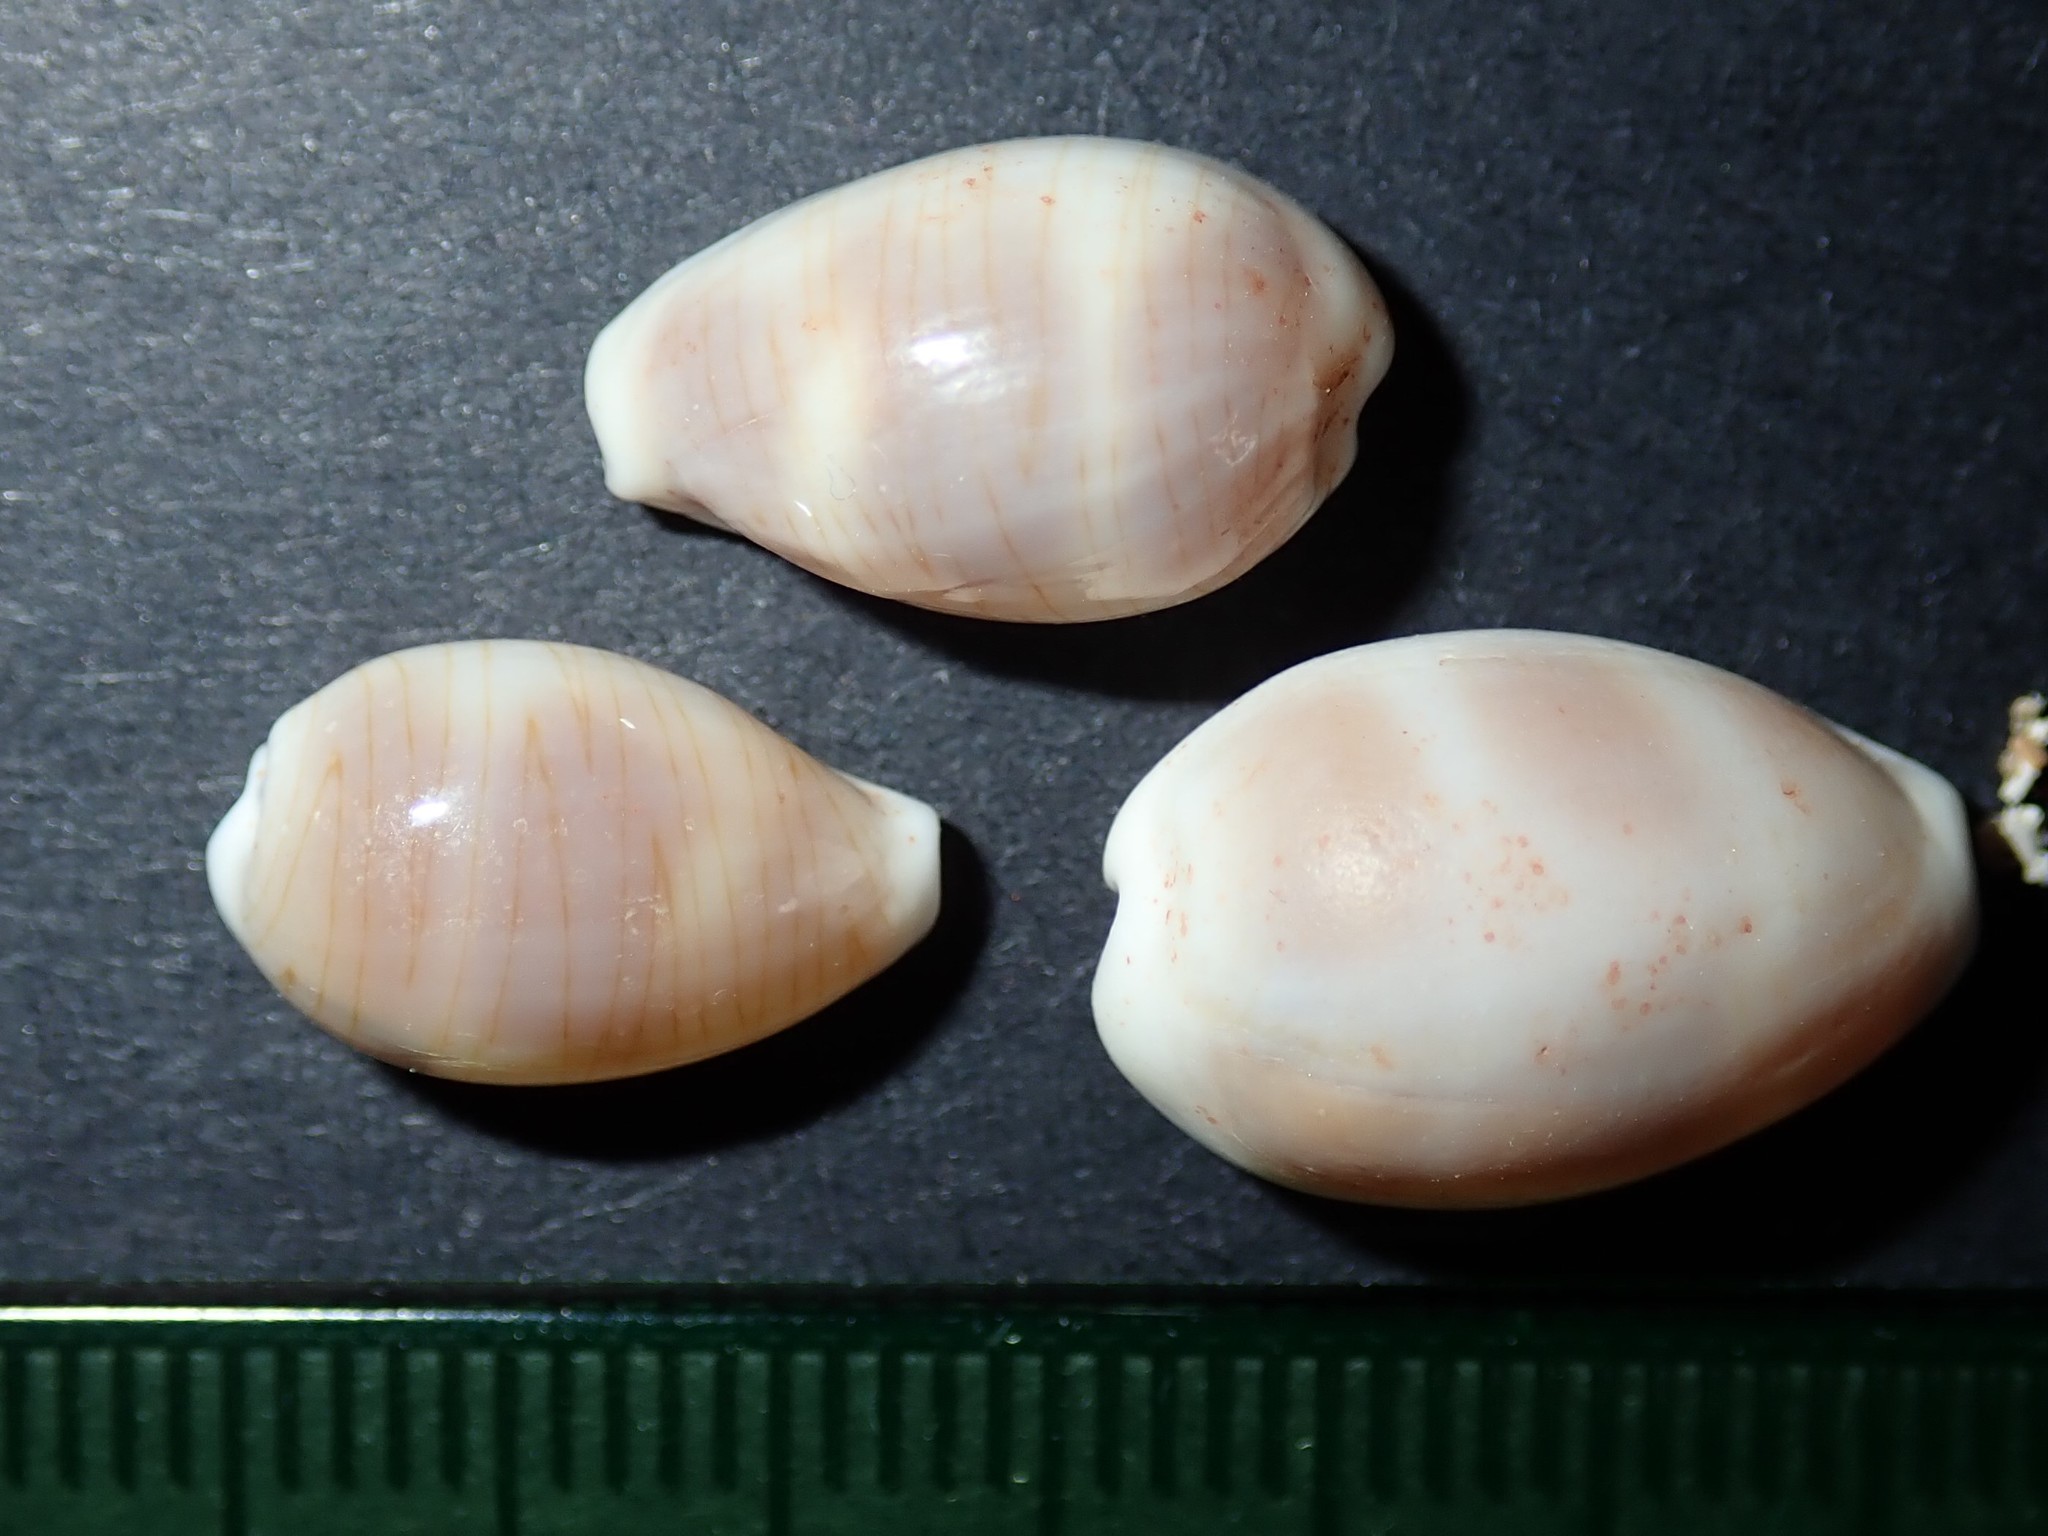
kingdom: Animalia
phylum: Mollusca
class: Gastropoda
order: Littorinimorpha
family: Cypraeidae
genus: Palmadusta
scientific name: Palmadusta clandestina
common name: Cowrie
